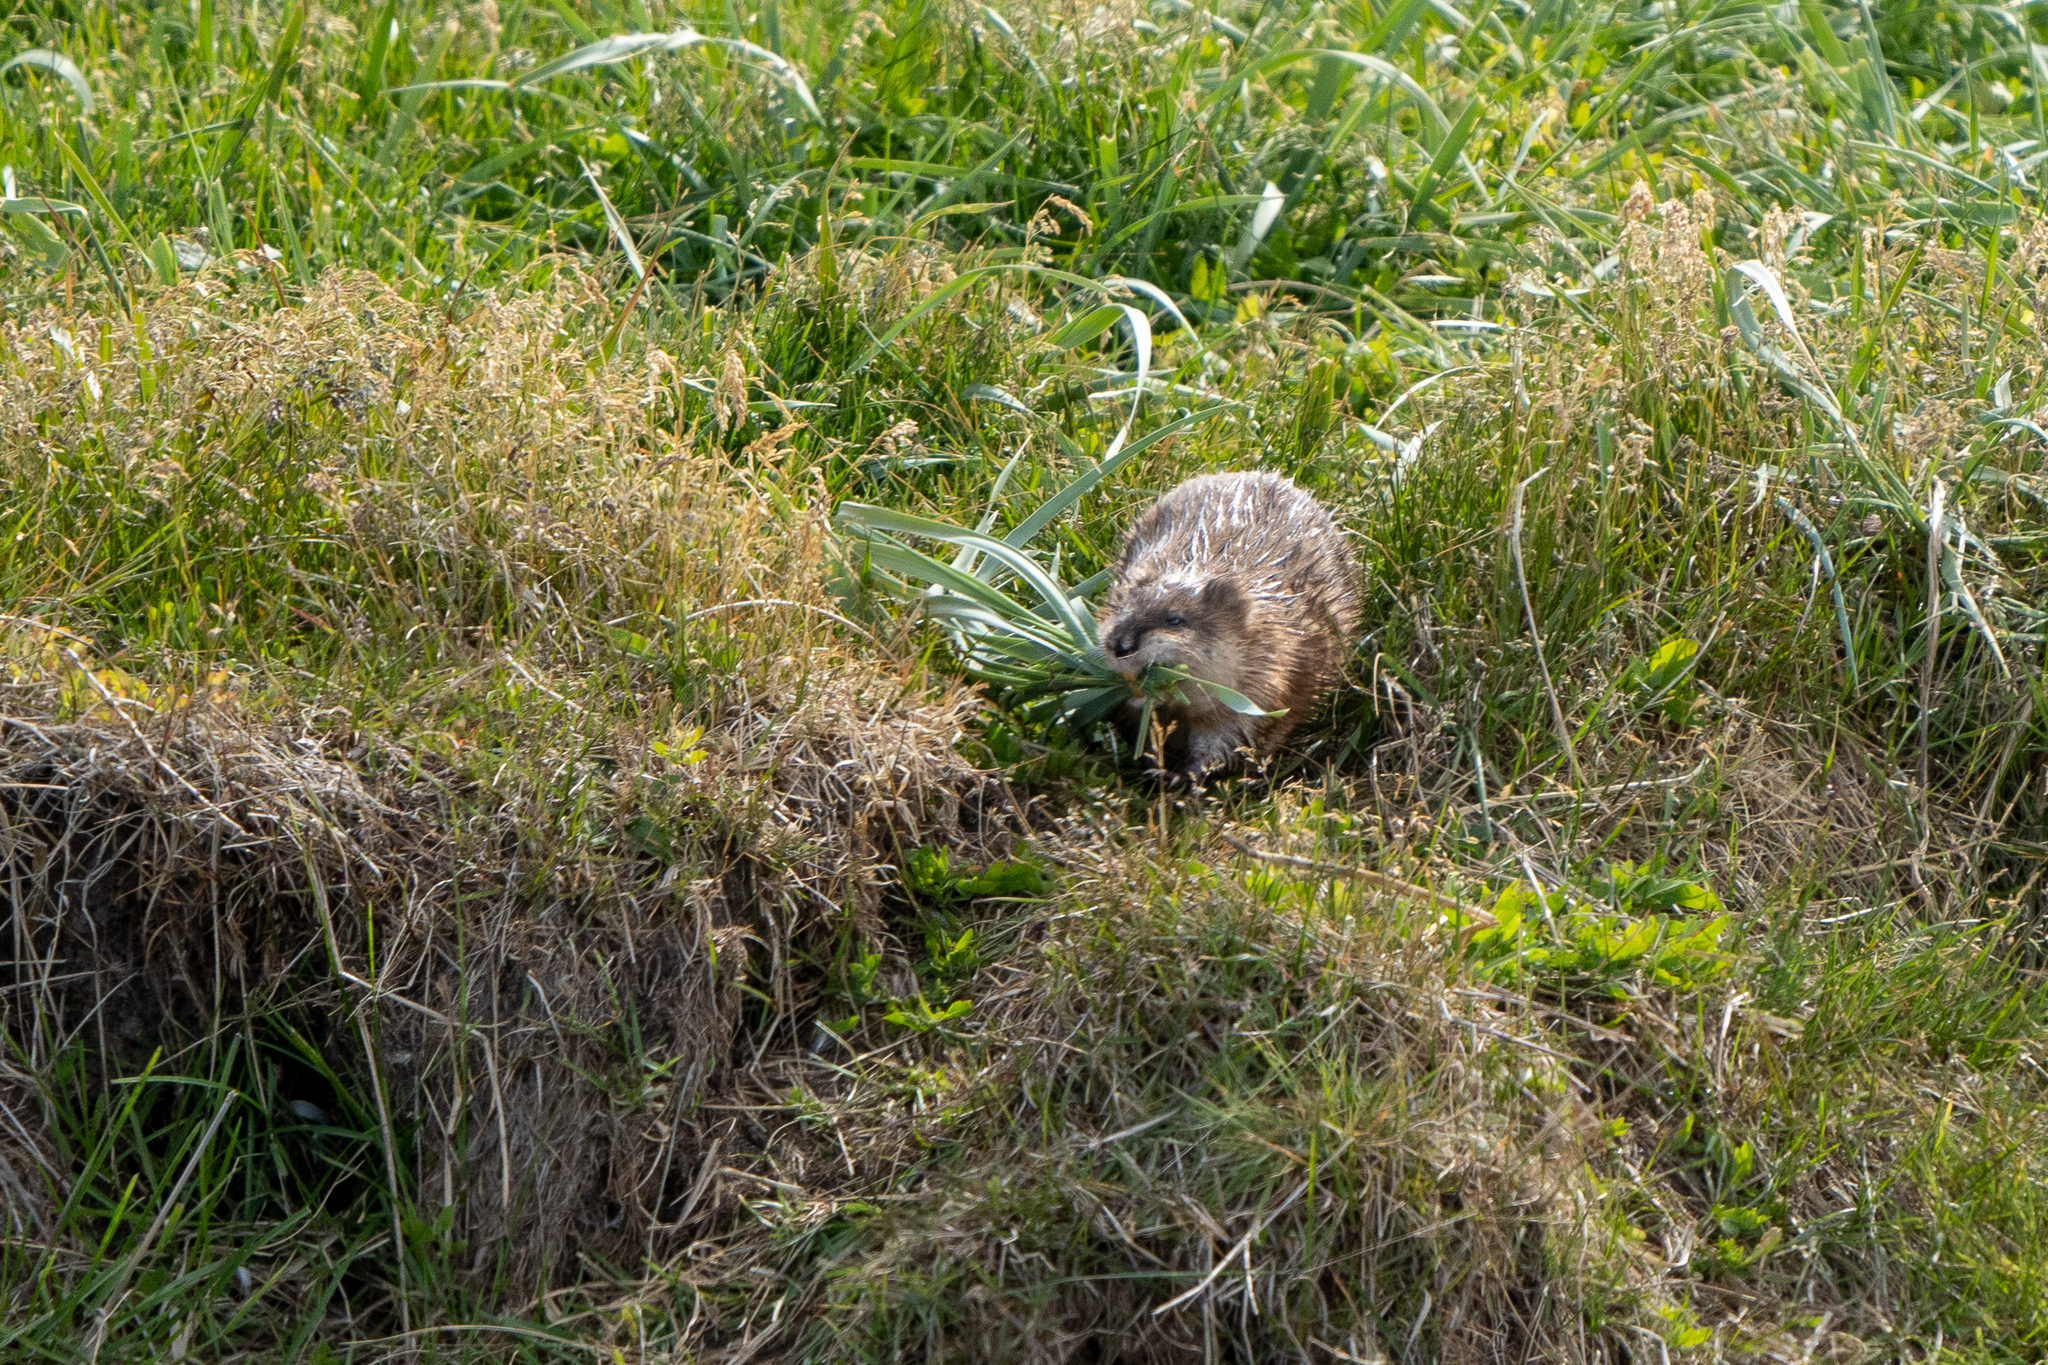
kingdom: Animalia
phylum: Chordata
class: Mammalia
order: Rodentia
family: Cricetidae
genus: Ondatra
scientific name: Ondatra zibethicus
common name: Muskrat
